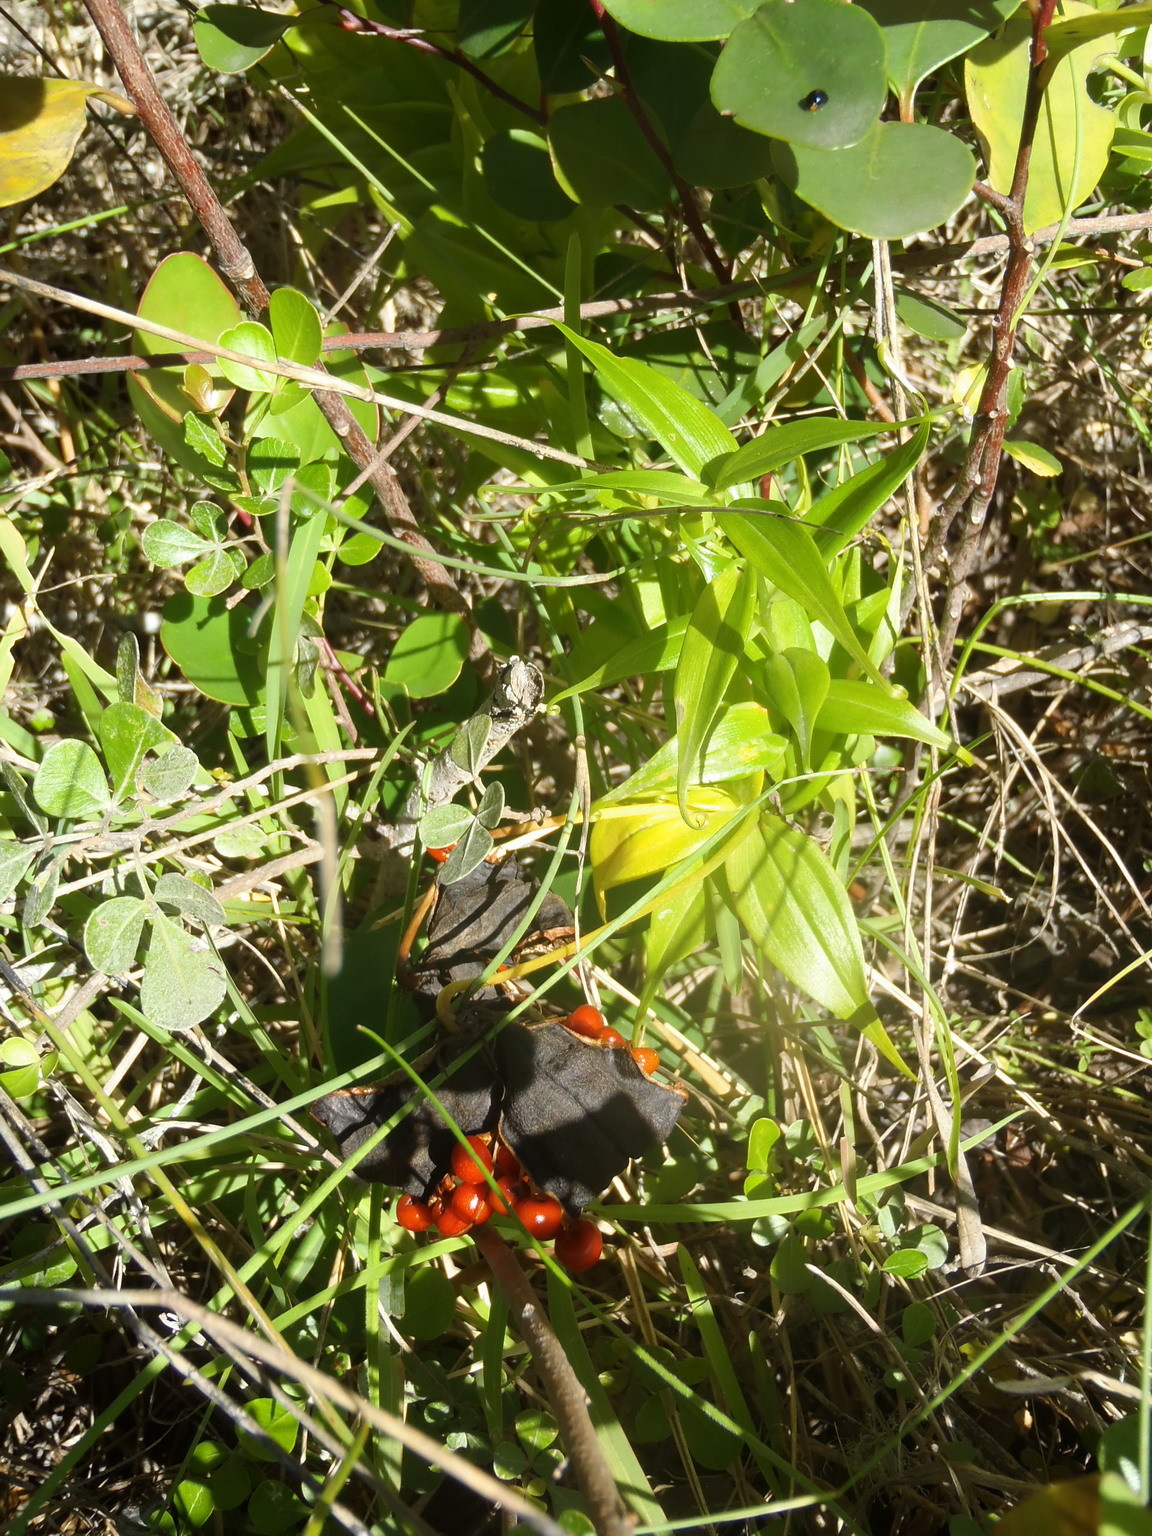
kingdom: Plantae
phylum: Tracheophyta
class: Liliopsida
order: Liliales
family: Colchicaceae
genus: Gloriosa
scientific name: Gloriosa superba
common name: Flame lily
